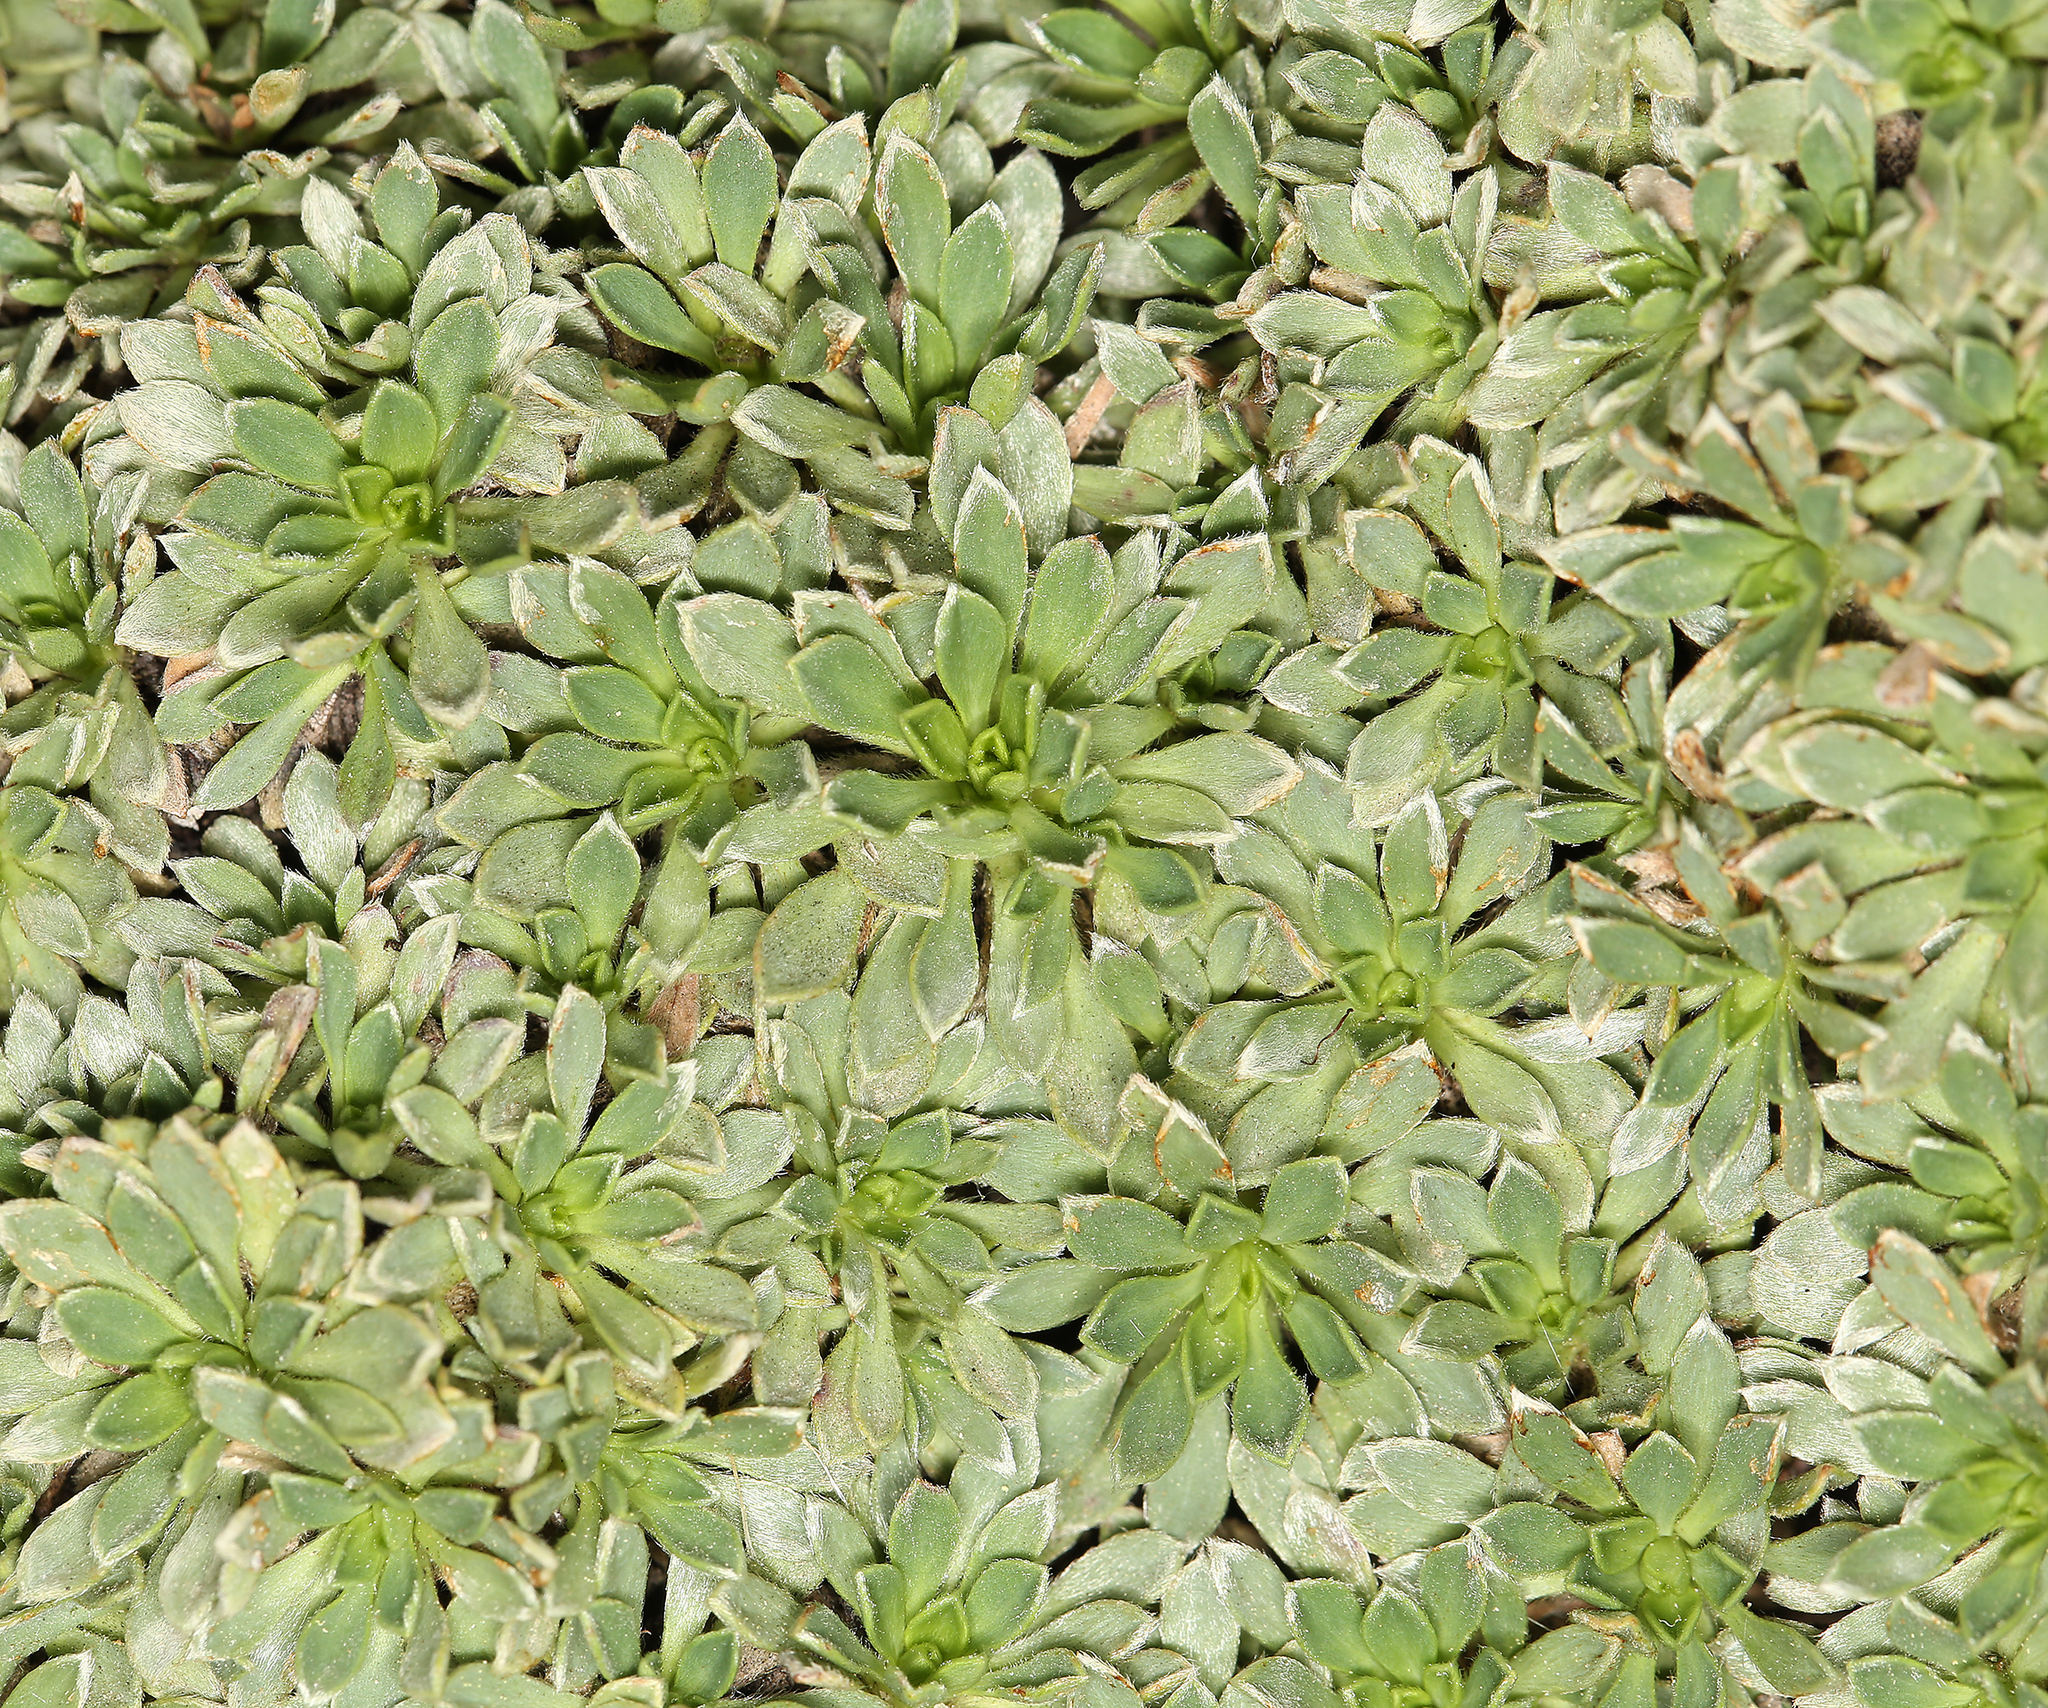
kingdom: Plantae
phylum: Tracheophyta
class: Magnoliopsida
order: Rosales
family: Rosaceae
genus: Petrophytum
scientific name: Petrophytum caespitosum
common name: Mat rockspirea
